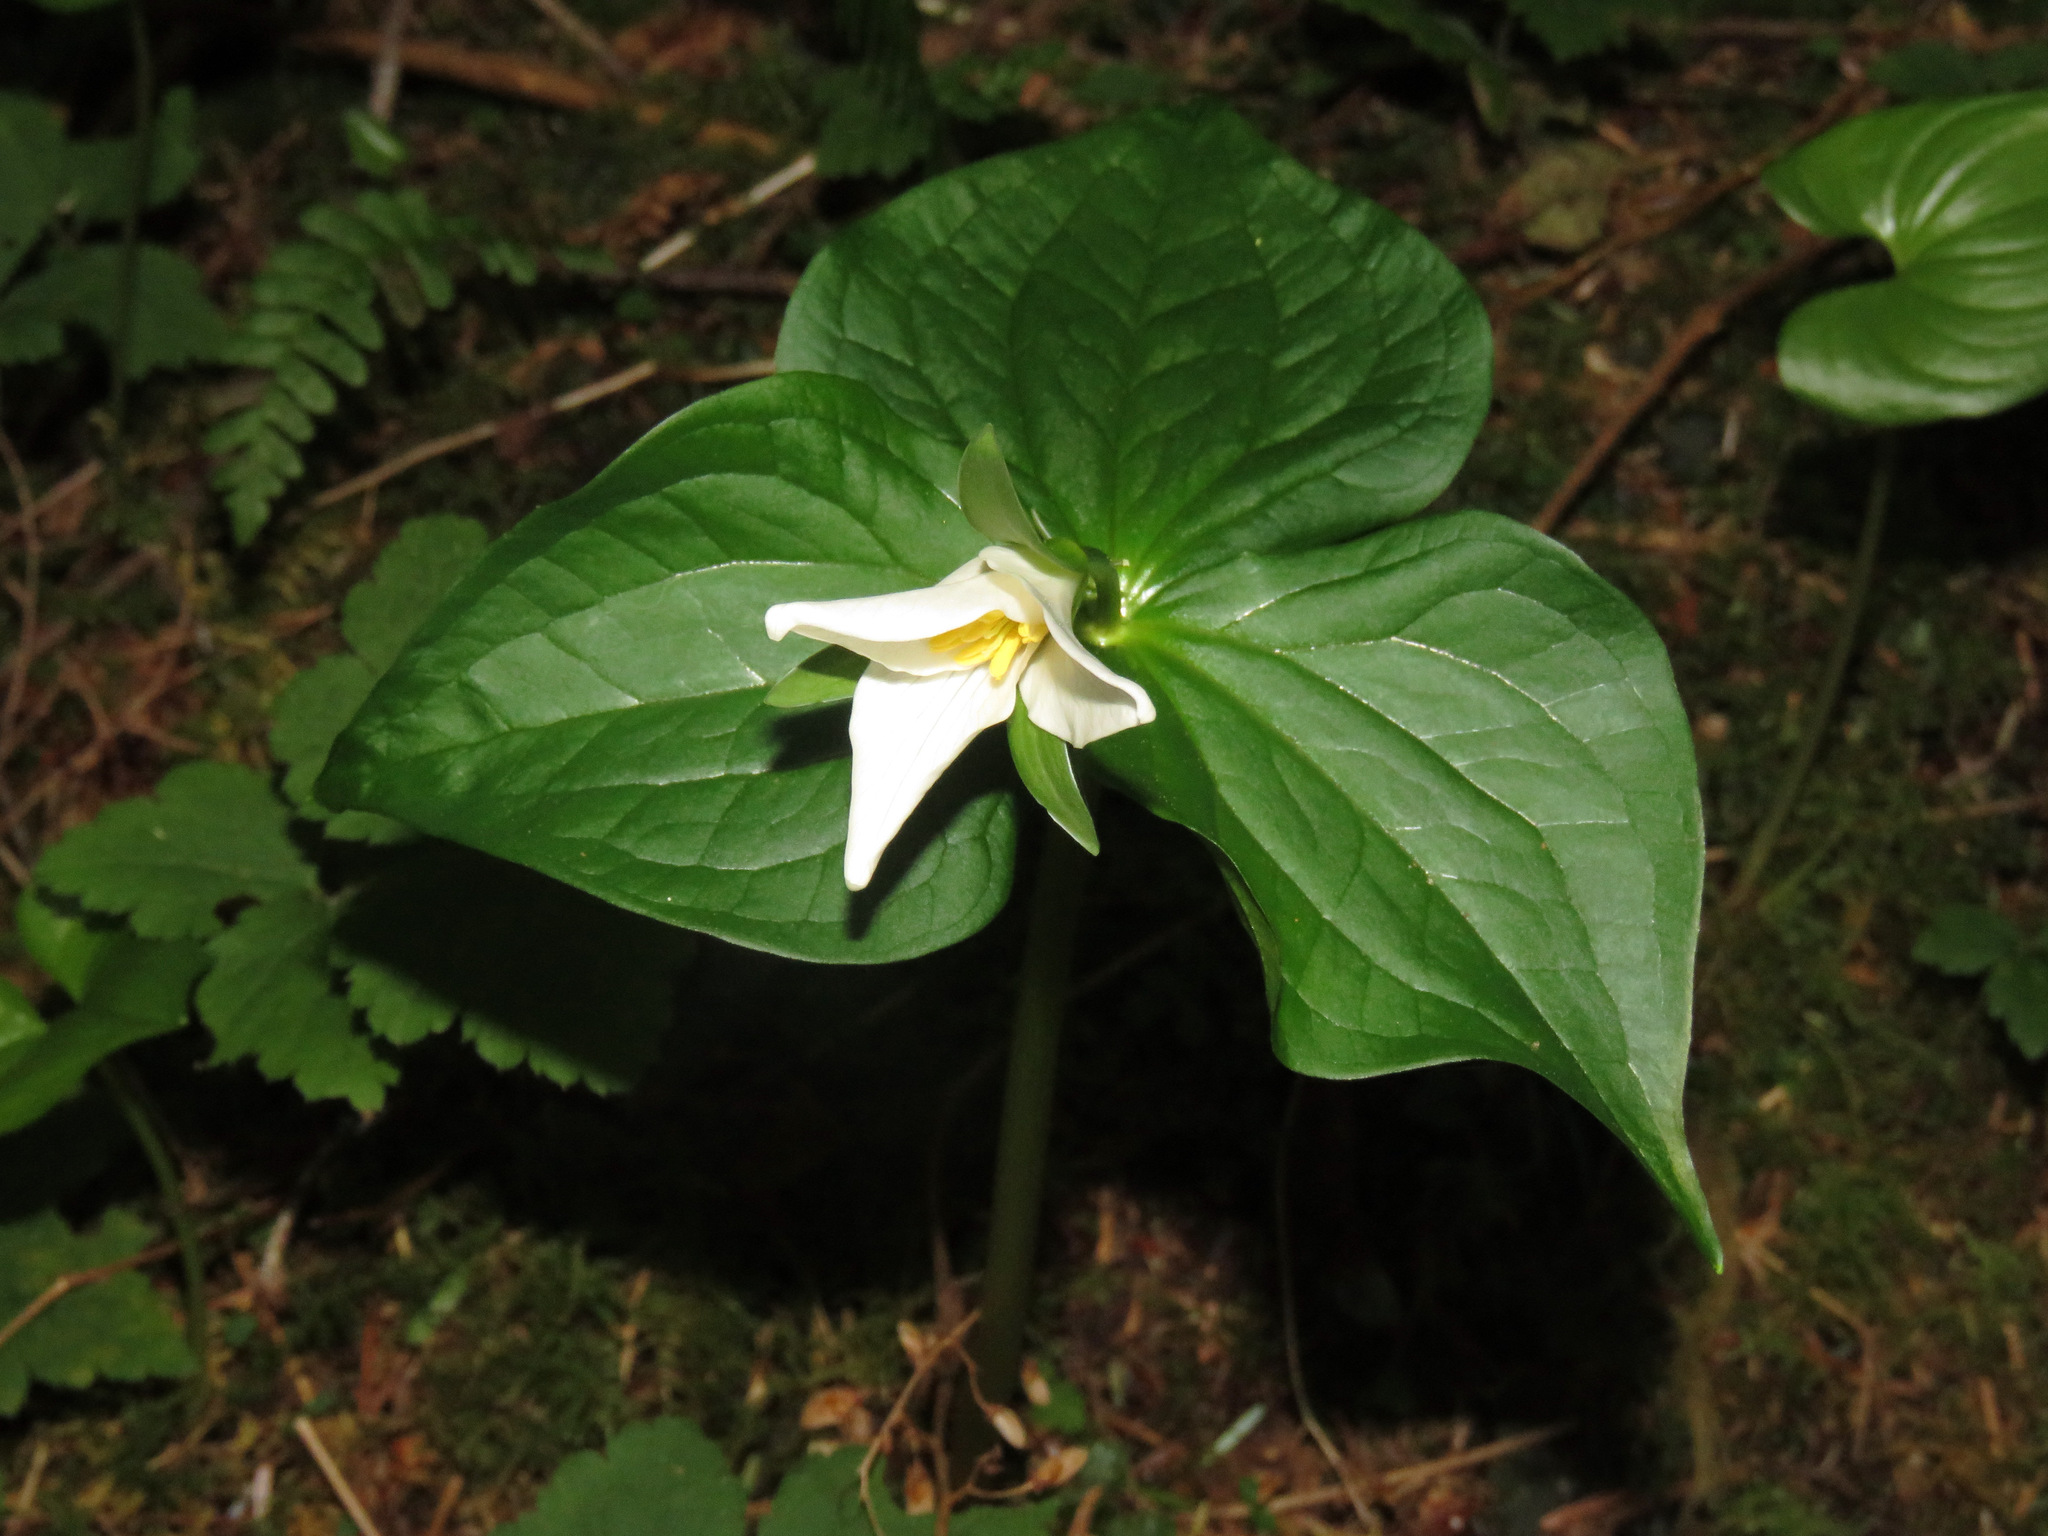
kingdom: Plantae
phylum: Tracheophyta
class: Liliopsida
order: Liliales
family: Melanthiaceae
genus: Trillium
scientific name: Trillium ovatum
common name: Pacific trillium
